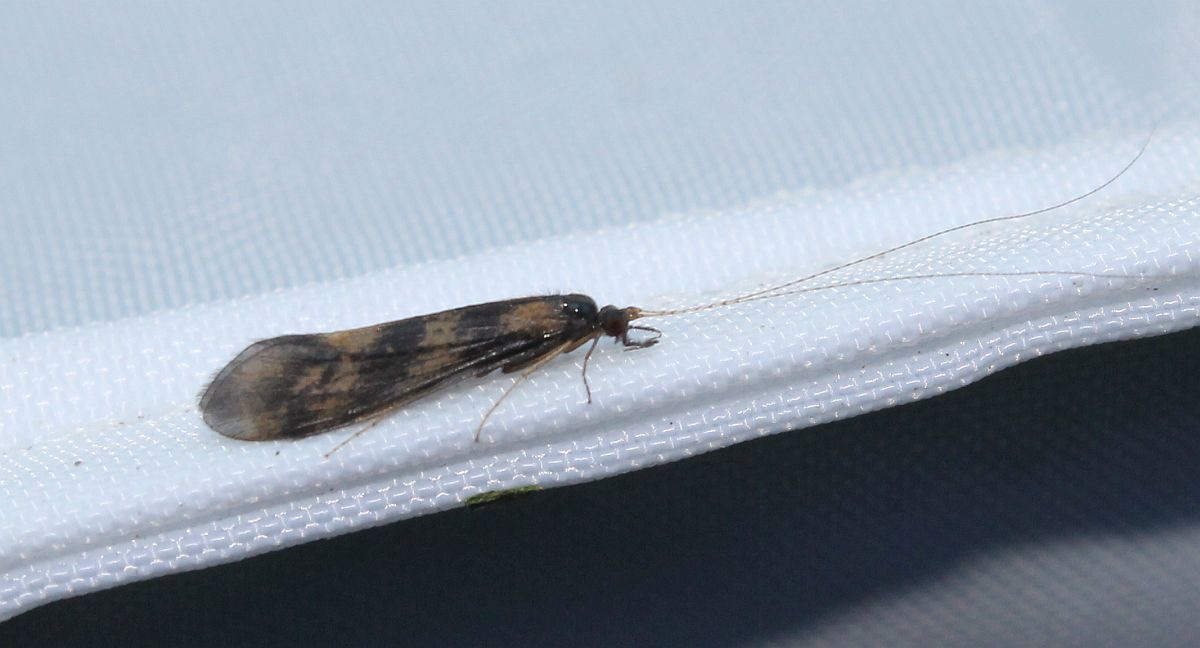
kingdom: Animalia
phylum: Arthropoda
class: Insecta
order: Trichoptera
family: Leptoceridae
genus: Mystacides
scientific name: Mystacides longicornis
